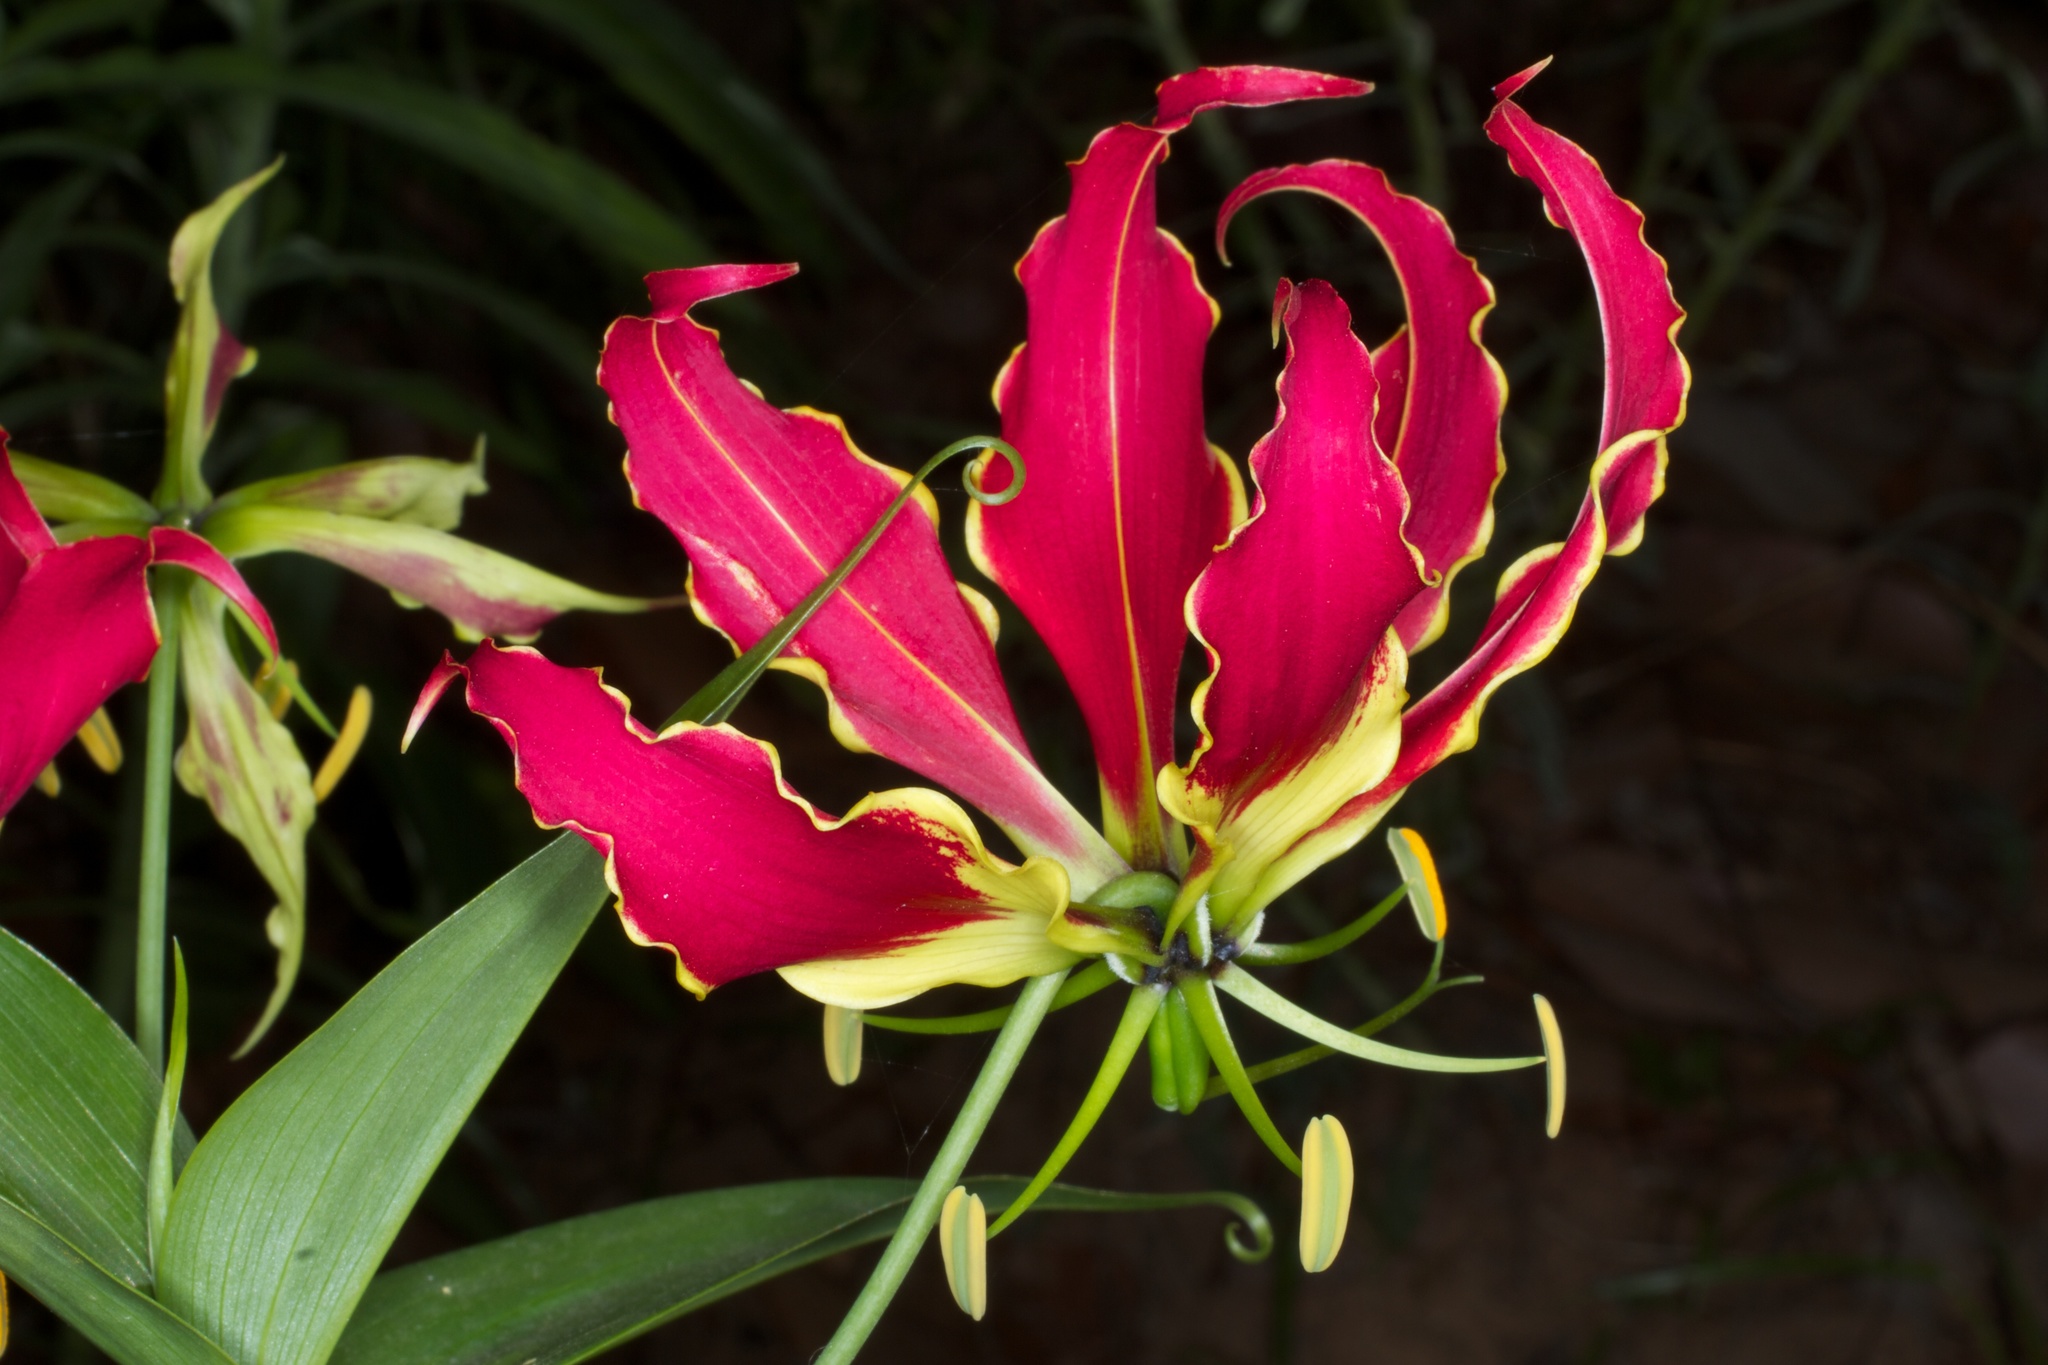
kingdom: Plantae
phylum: Tracheophyta
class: Liliopsida
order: Liliales
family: Colchicaceae
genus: Gloriosa
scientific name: Gloriosa superba
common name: Flame lily
